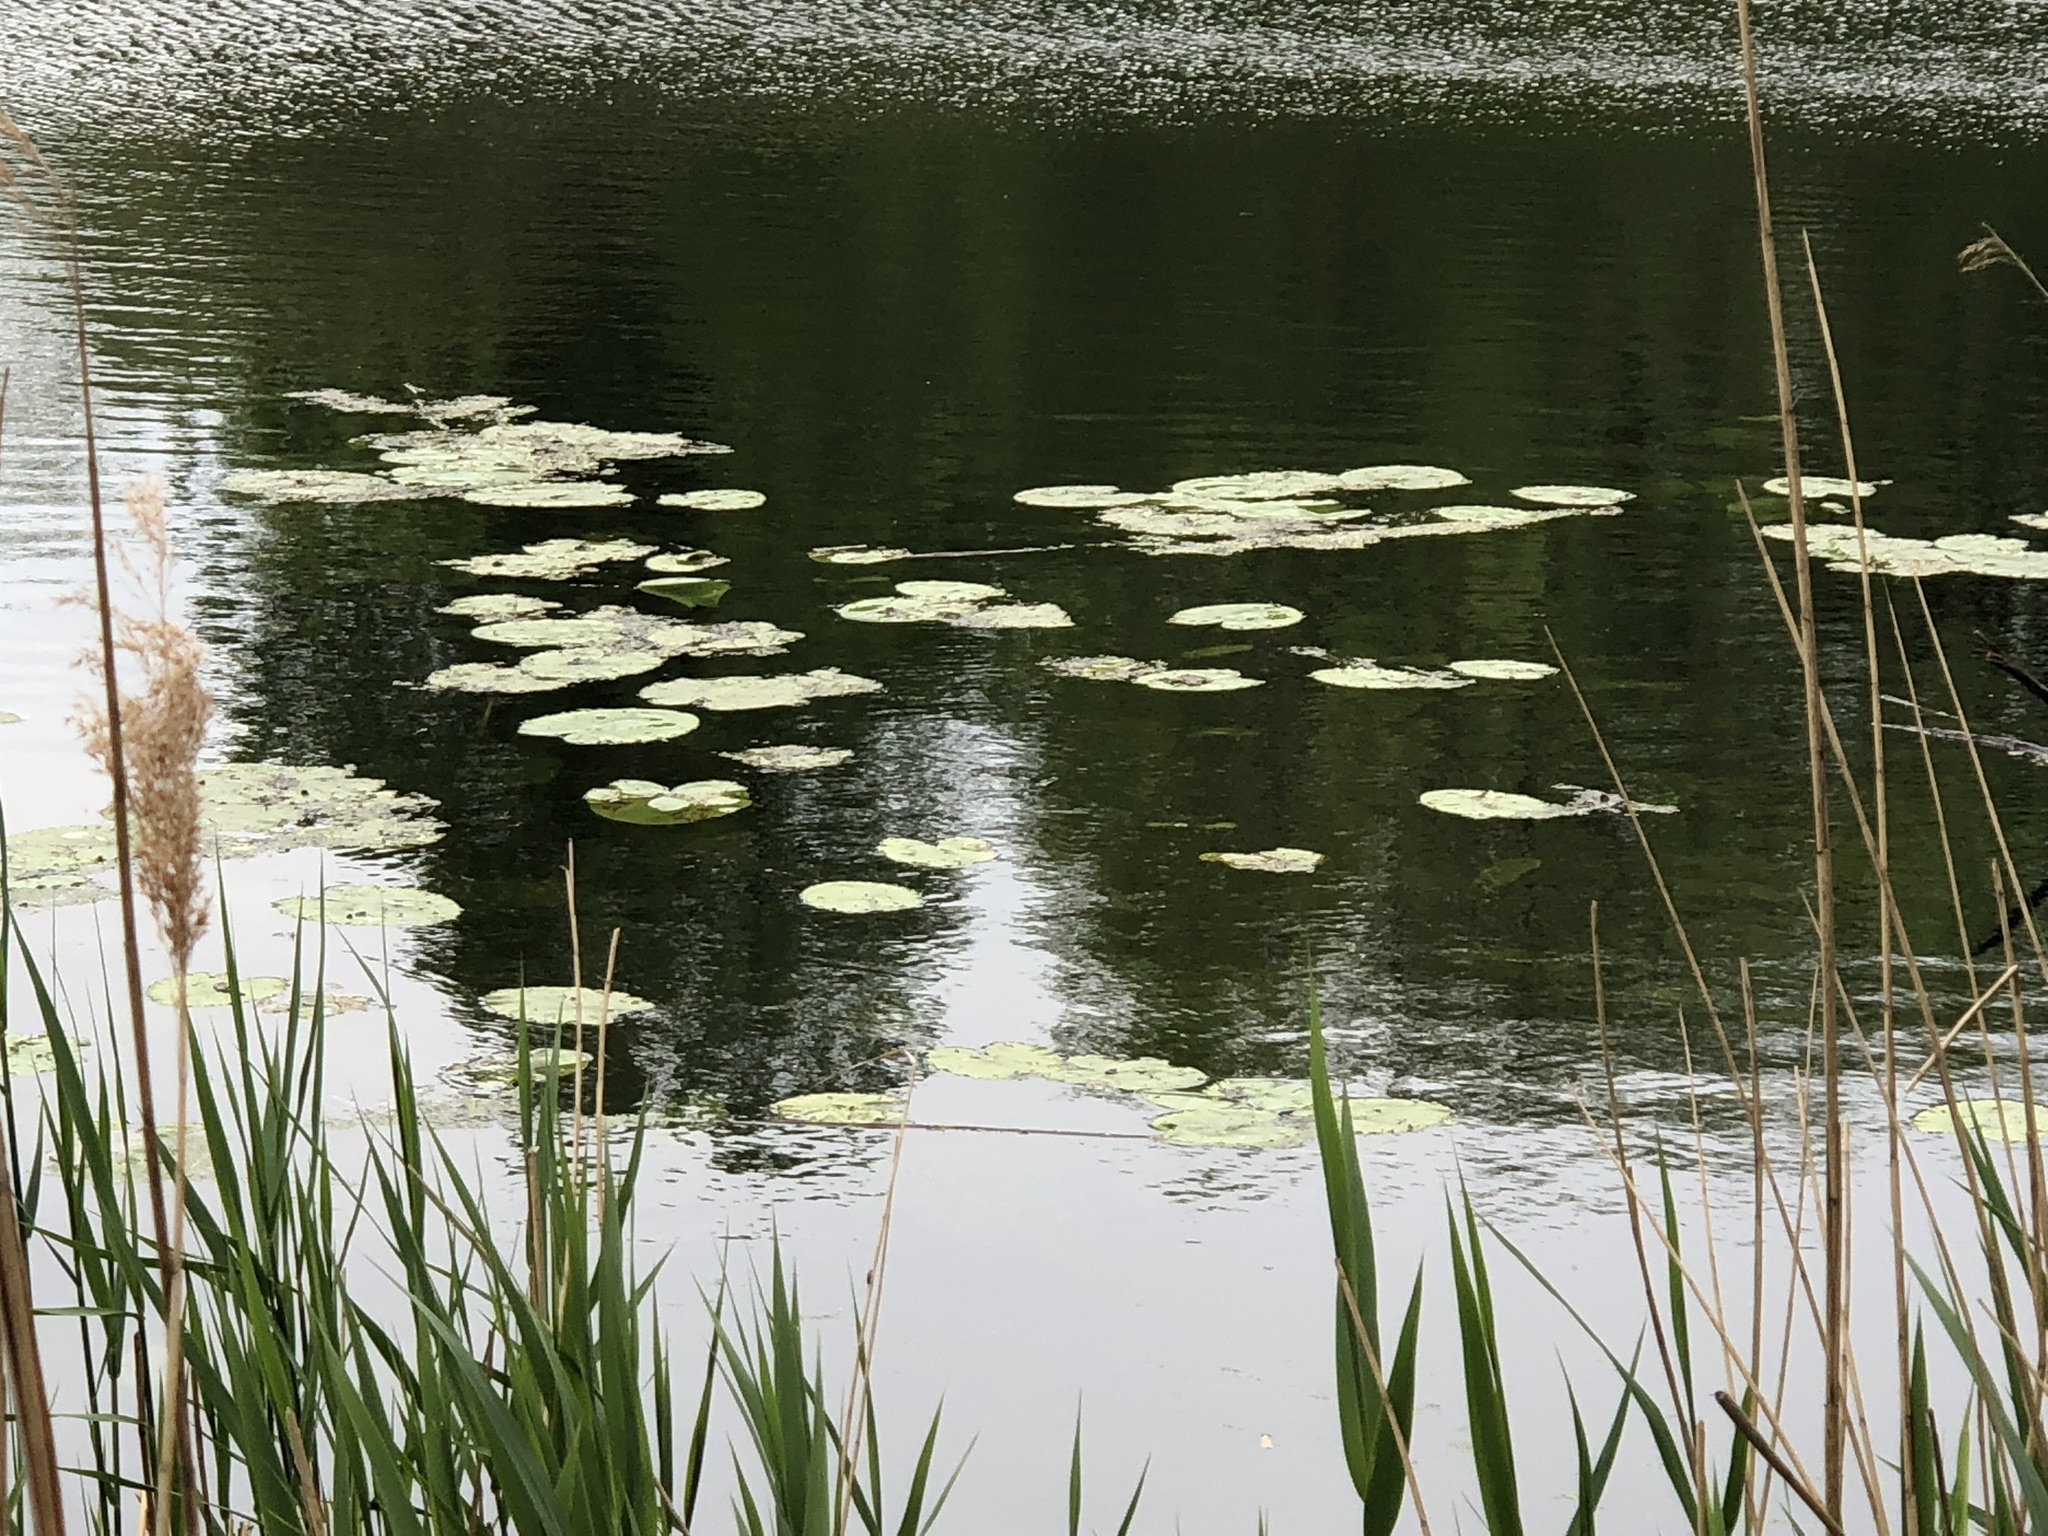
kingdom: Plantae
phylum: Tracheophyta
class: Magnoliopsida
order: Nymphaeales
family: Nymphaeaceae
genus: Nuphar
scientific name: Nuphar lutea
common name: Yellow water-lily
